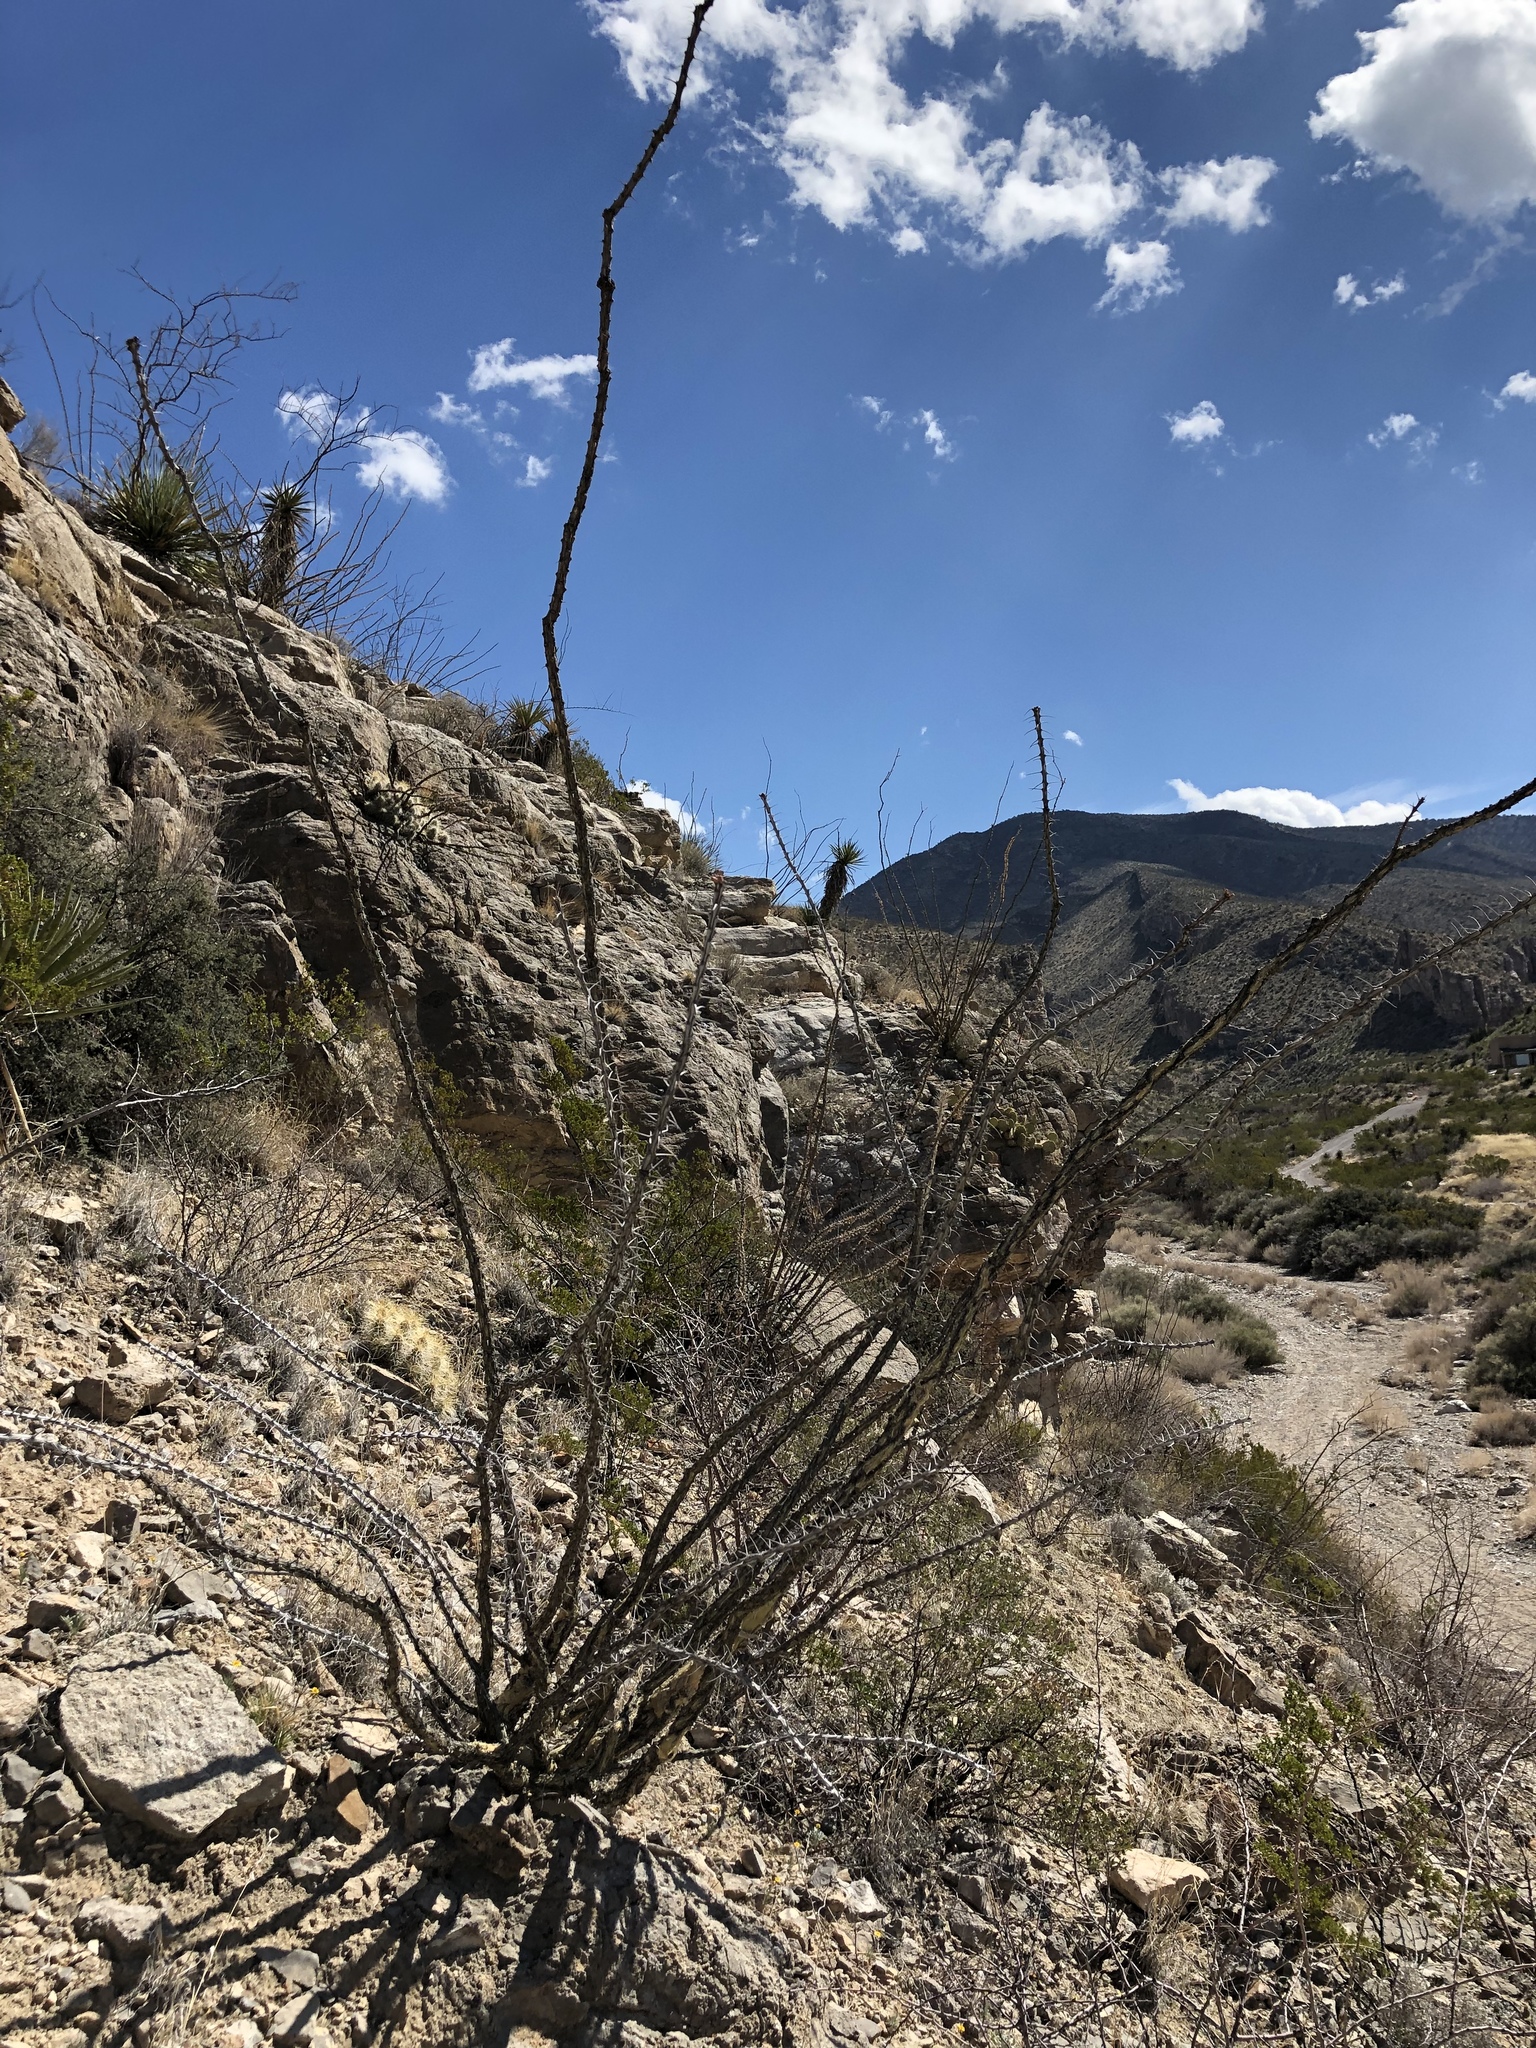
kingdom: Plantae
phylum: Tracheophyta
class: Magnoliopsida
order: Ericales
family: Fouquieriaceae
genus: Fouquieria
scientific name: Fouquieria splendens
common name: Vine-cactus
